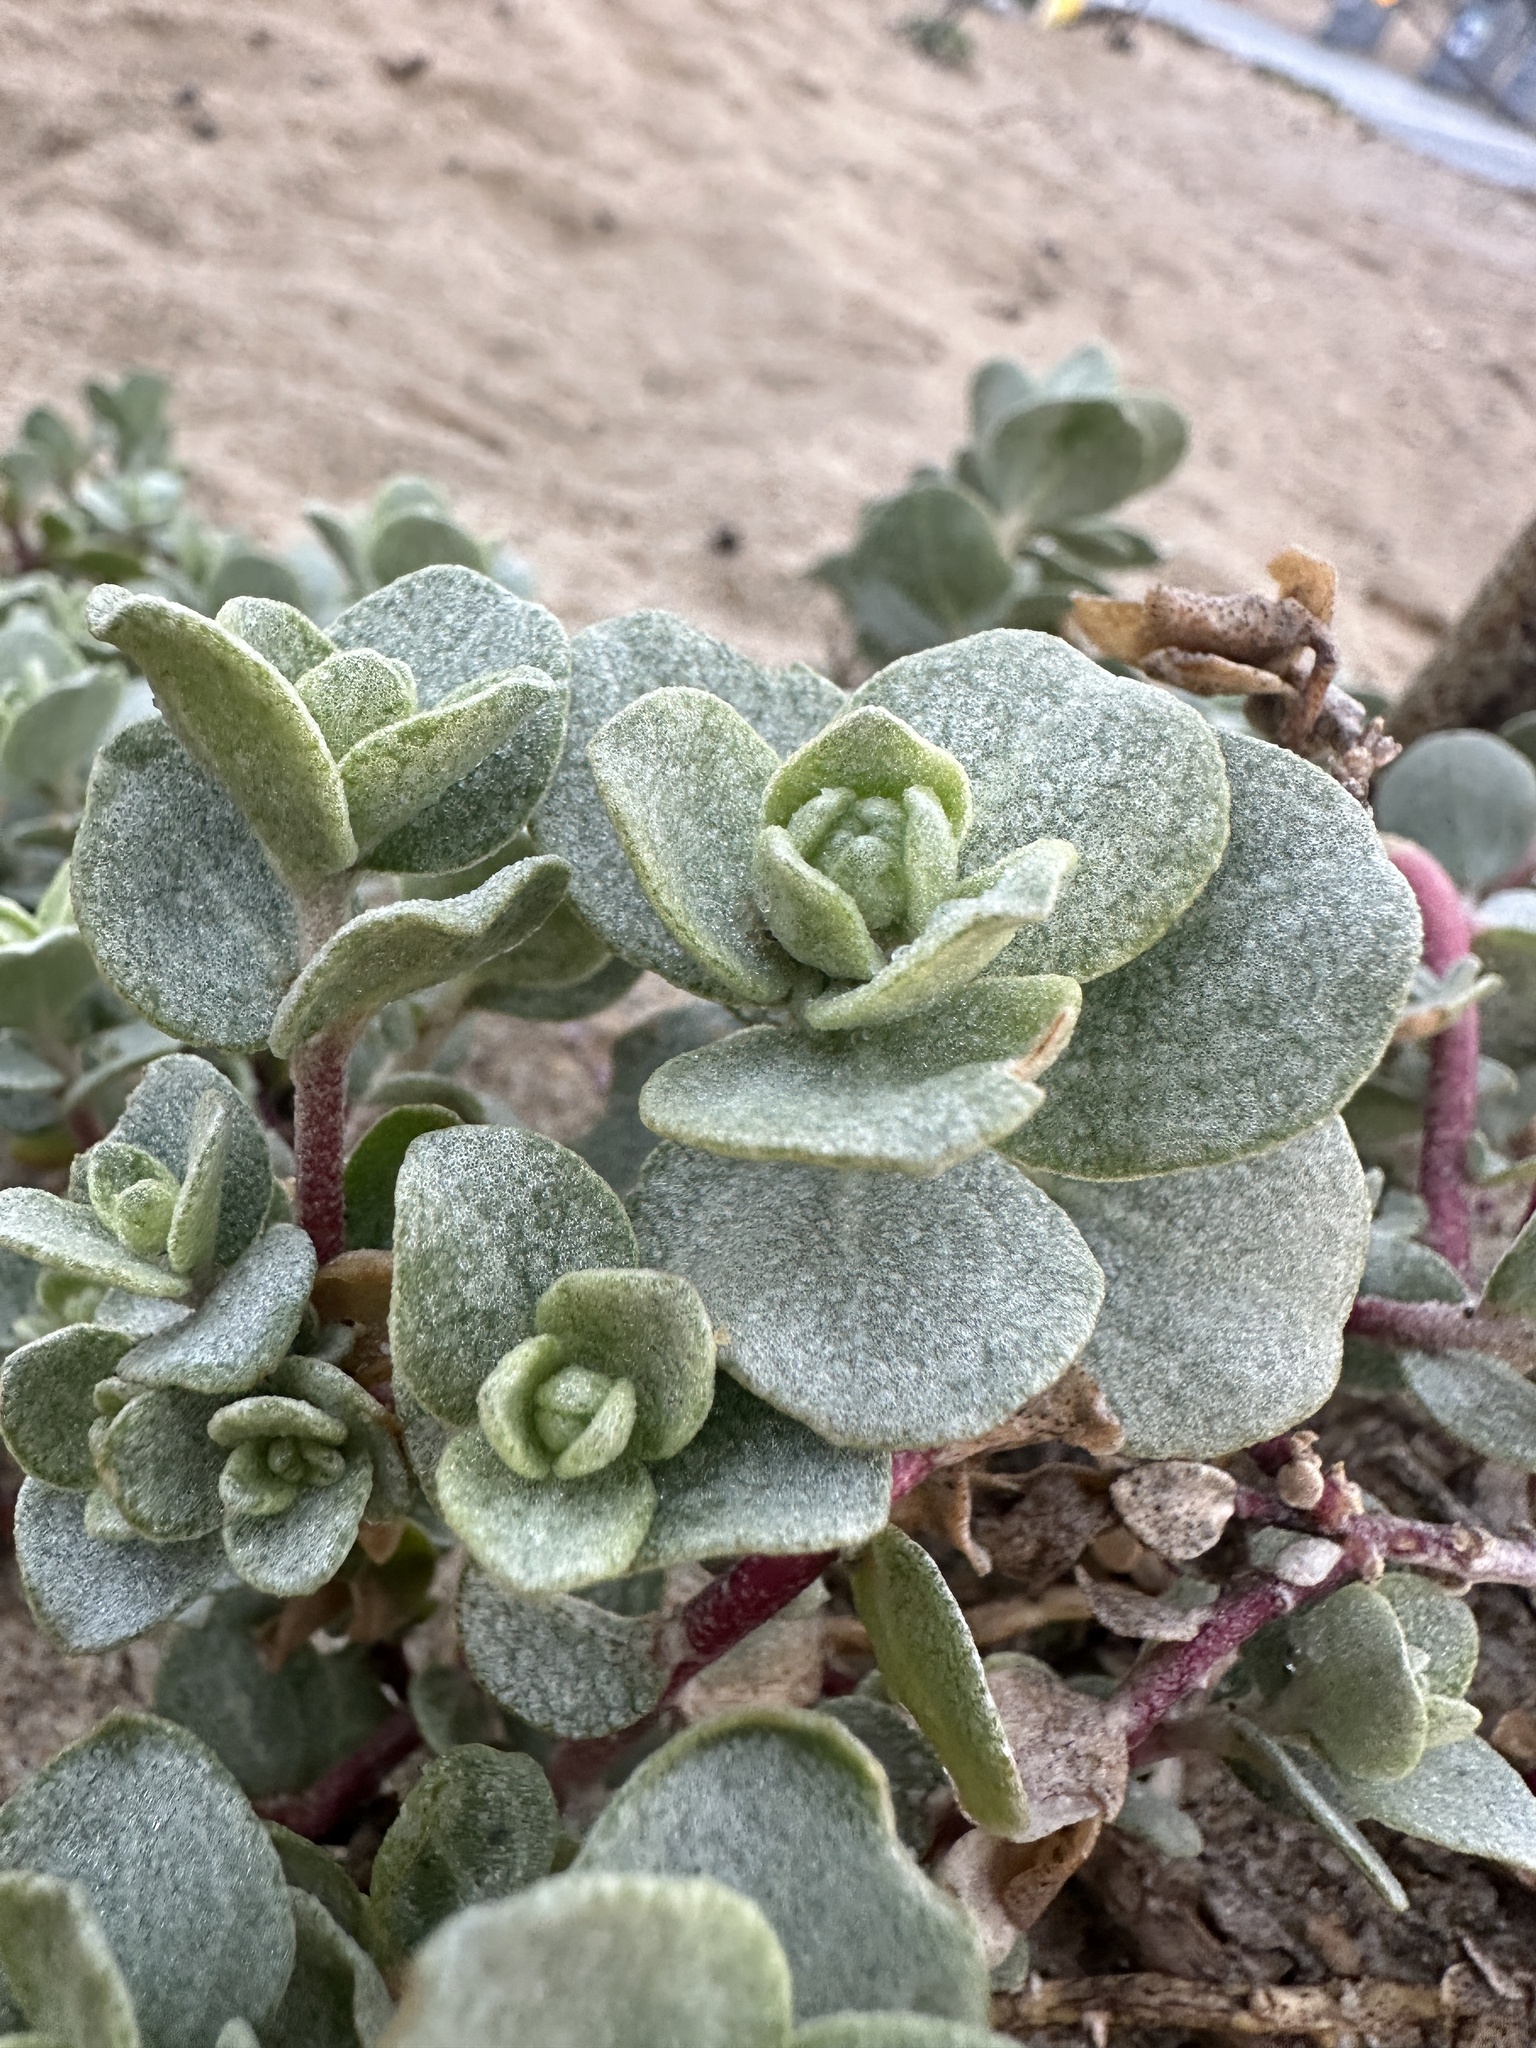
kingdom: Plantae
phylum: Tracheophyta
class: Magnoliopsida
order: Caryophyllales
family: Amaranthaceae
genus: Atriplex
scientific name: Atriplex leucophylla
